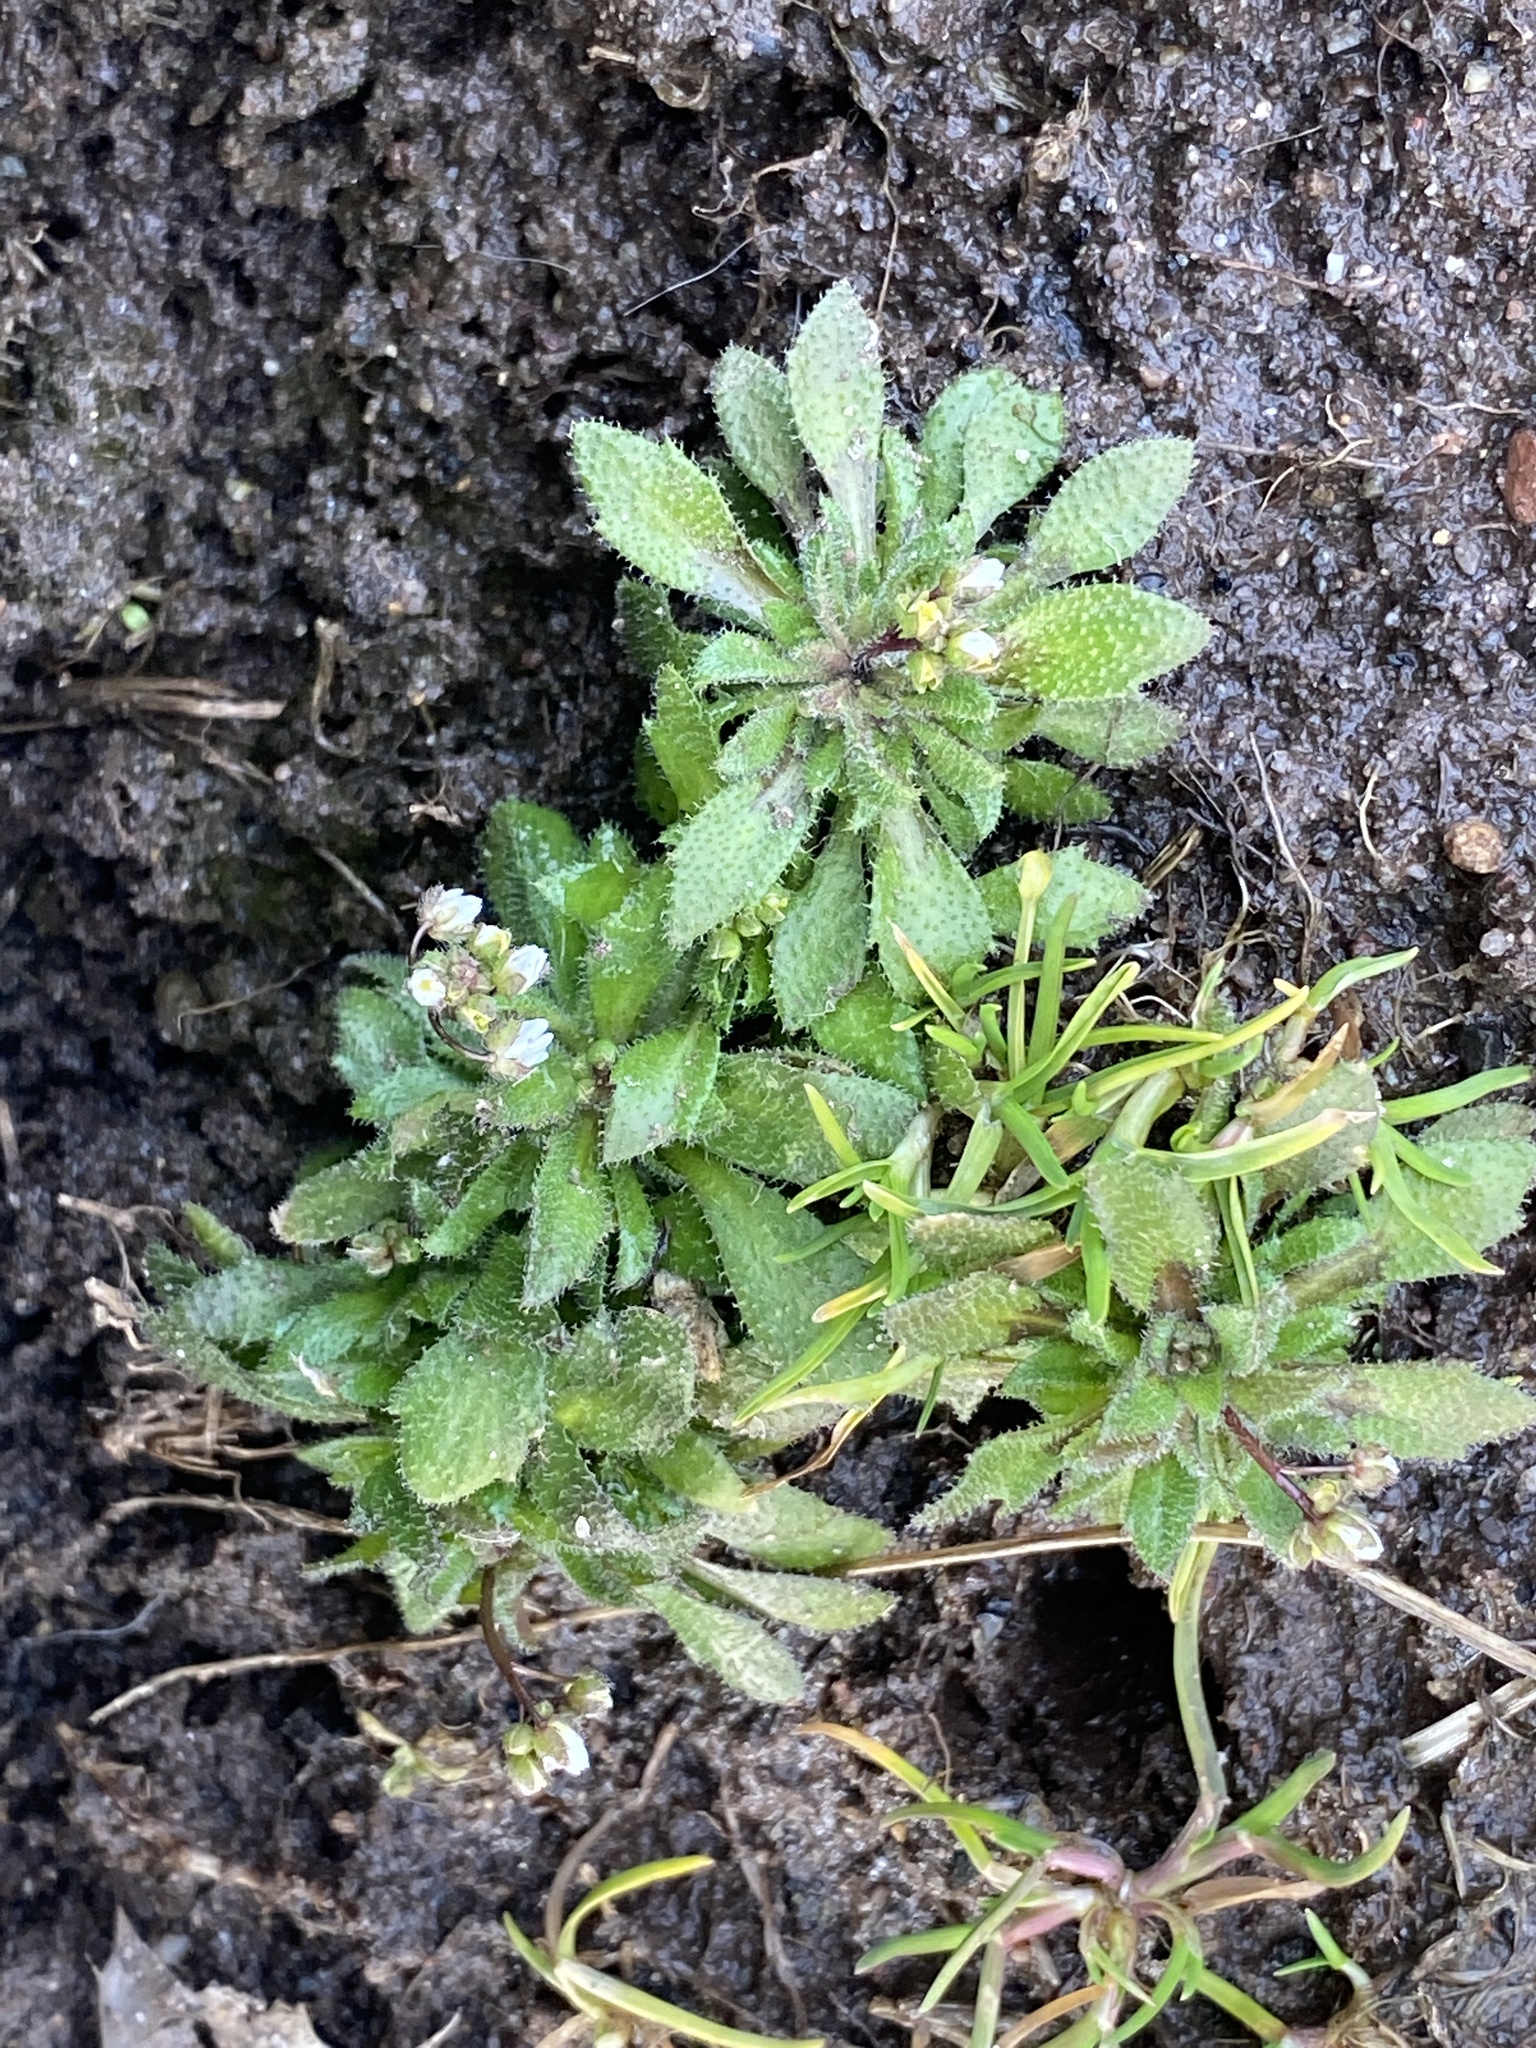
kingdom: Plantae
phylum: Tracheophyta
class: Magnoliopsida
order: Brassicales
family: Brassicaceae
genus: Draba
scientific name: Draba verna
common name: Spring draba
